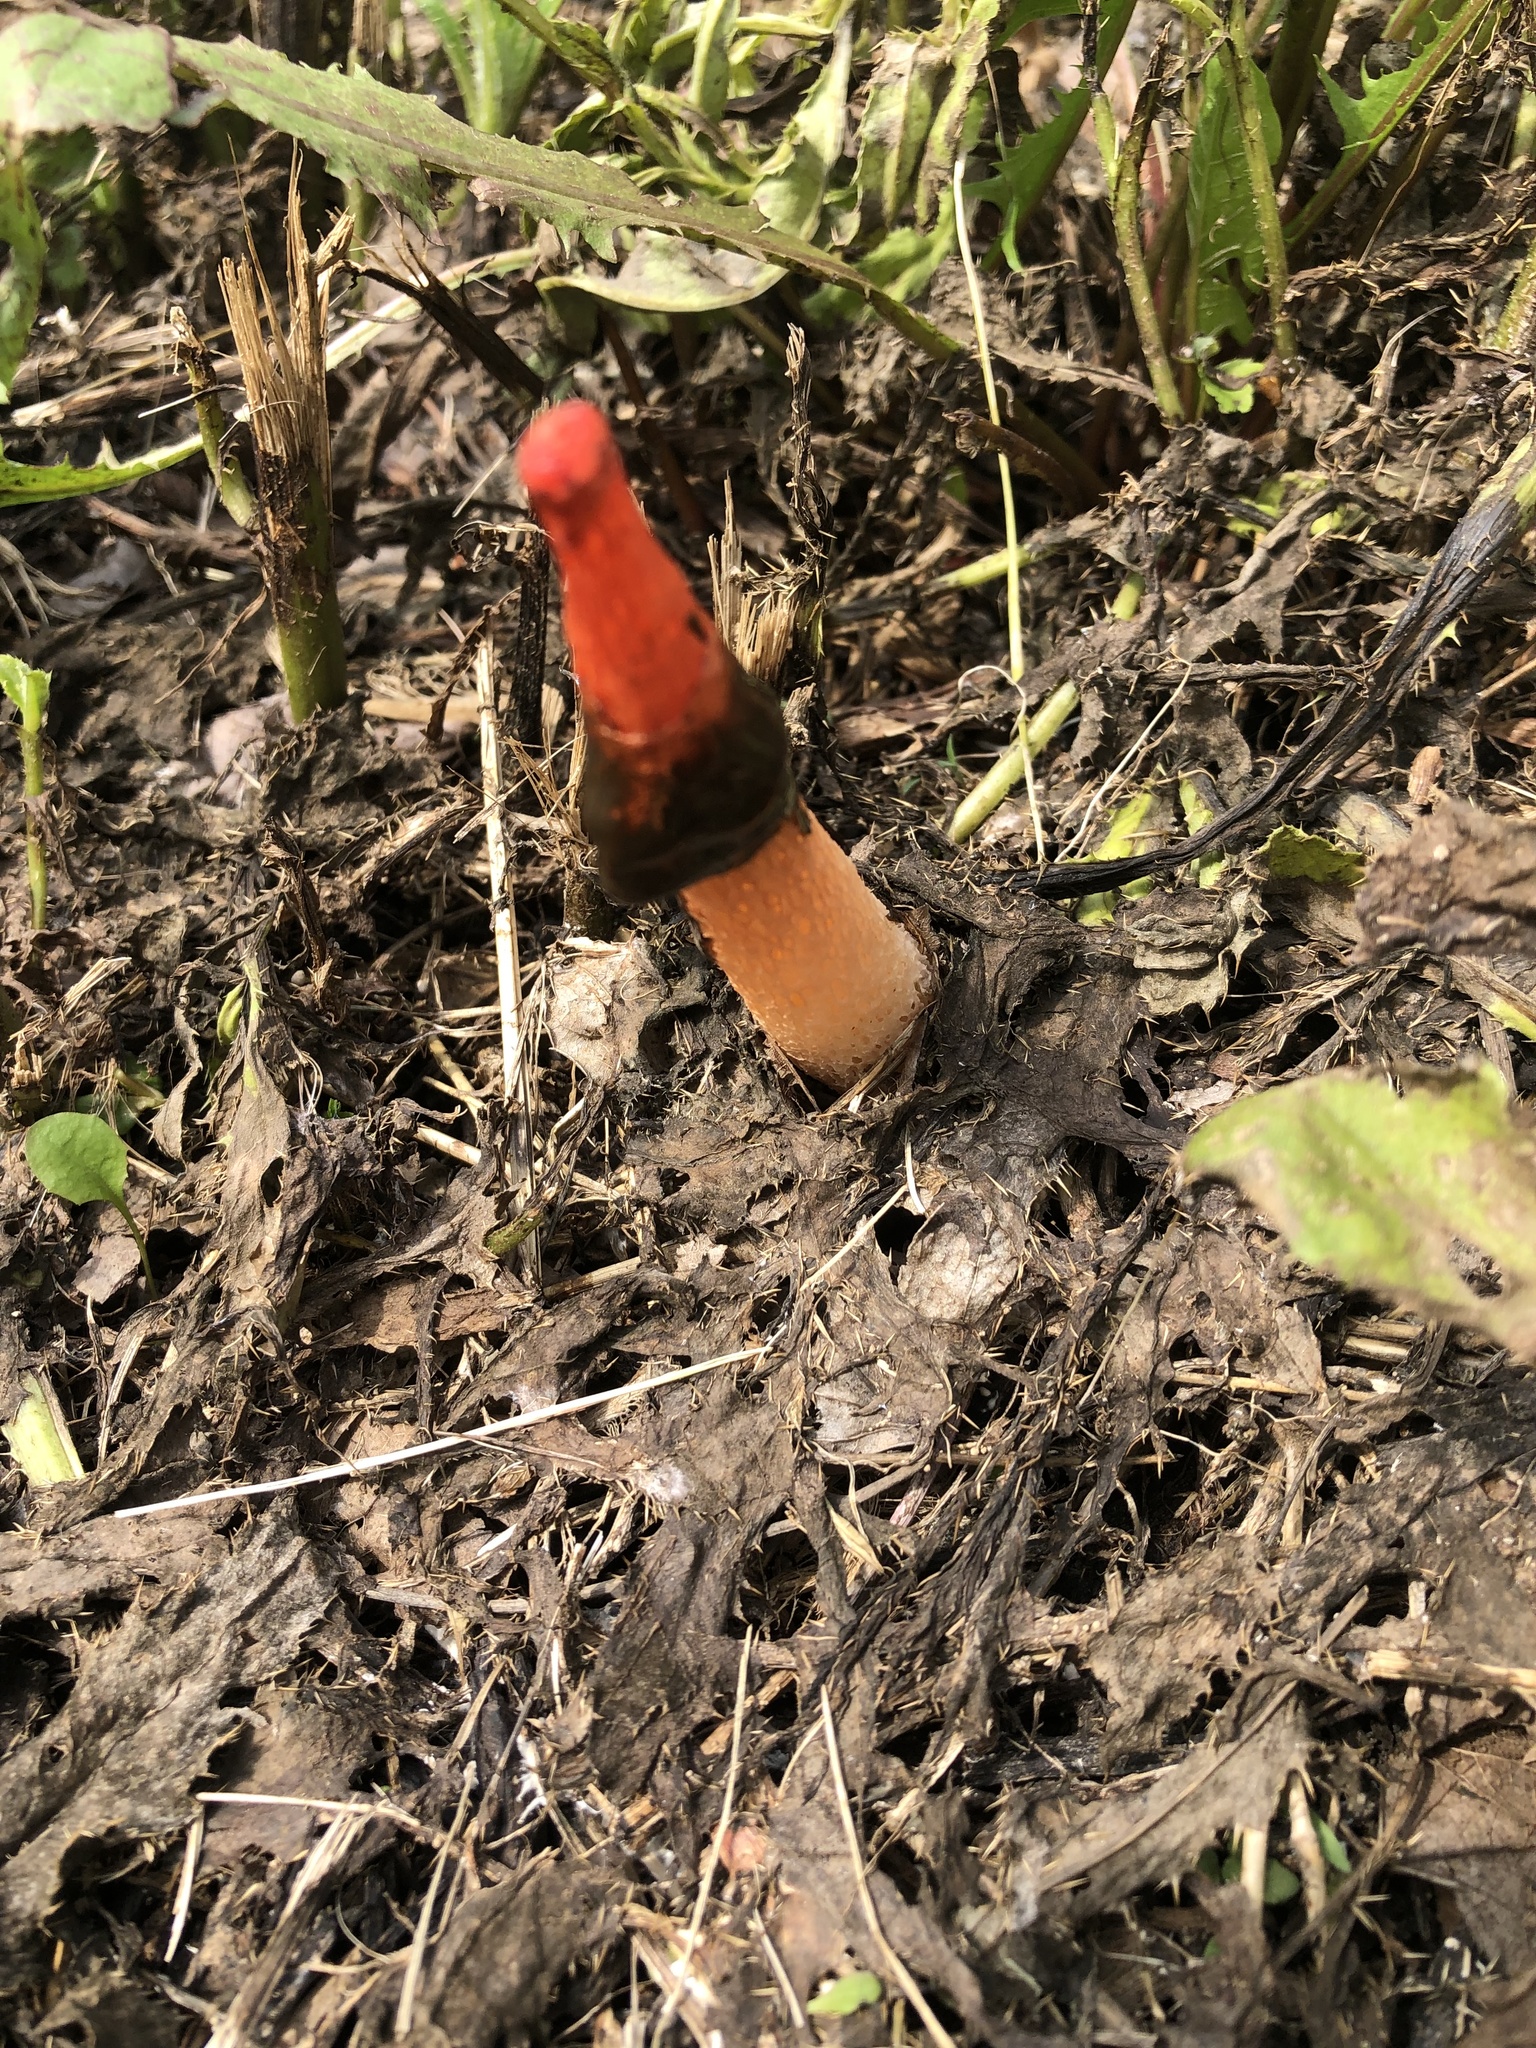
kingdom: Fungi
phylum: Basidiomycota
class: Agaricomycetes
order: Phallales
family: Phallaceae
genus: Phallus
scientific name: Phallus rugulosus
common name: Wrinkly stinkhorn
